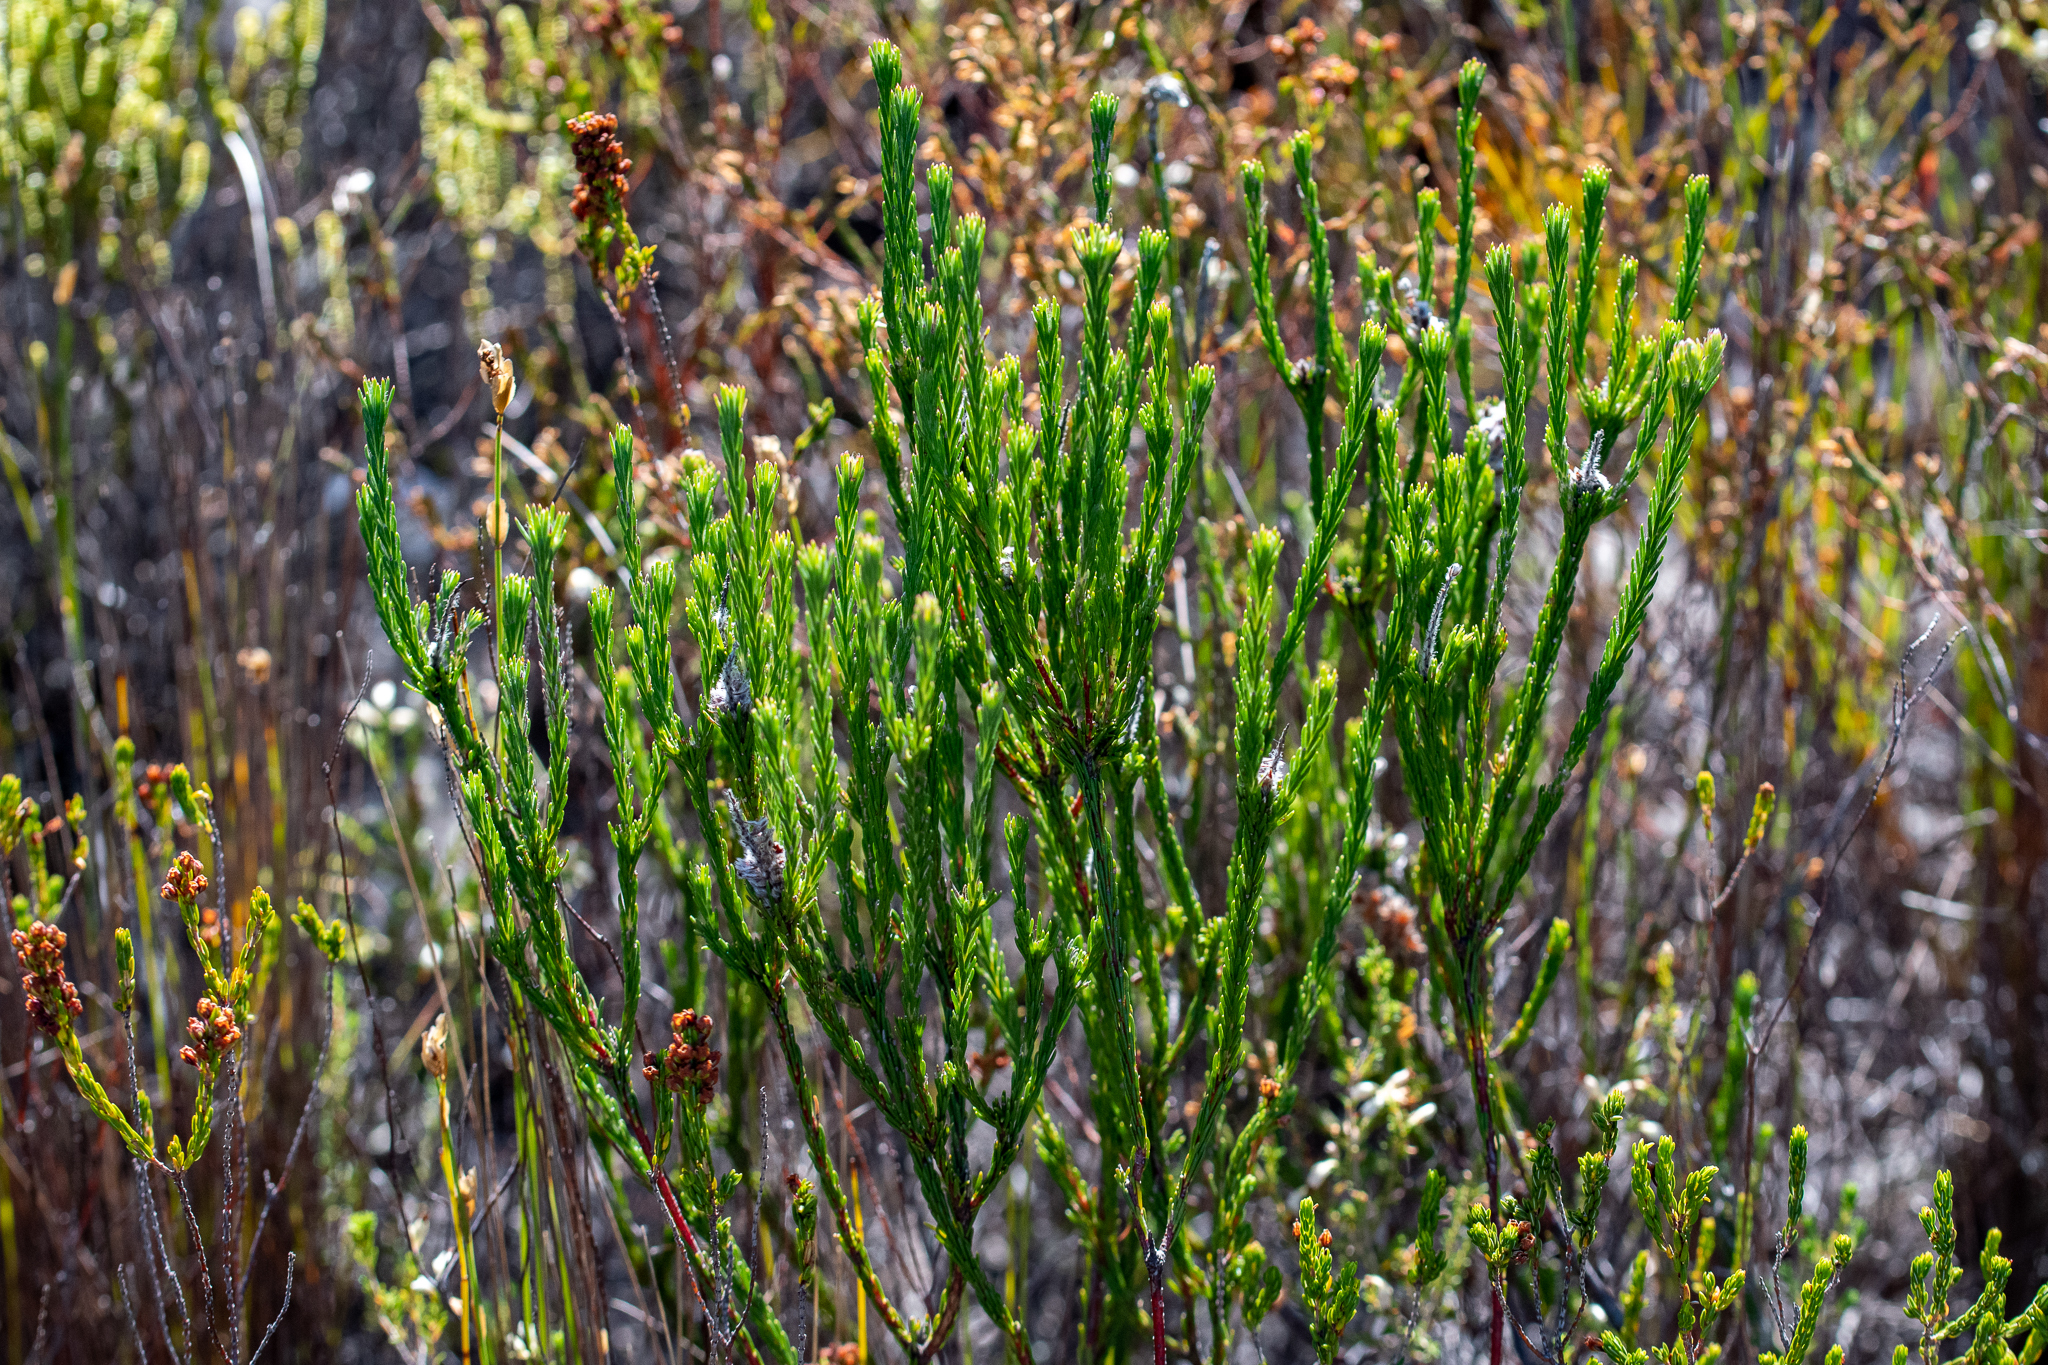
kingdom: Plantae
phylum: Tracheophyta
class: Magnoliopsida
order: Proteales
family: Proteaceae
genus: Spatalla
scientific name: Spatalla ericoides
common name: Erica-leaf spoon
